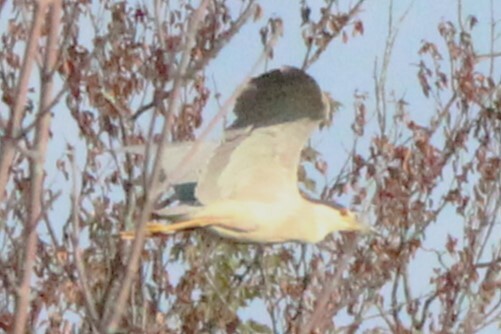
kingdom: Animalia
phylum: Chordata
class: Aves
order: Pelecaniformes
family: Ardeidae
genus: Nycticorax
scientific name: Nycticorax nycticorax
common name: Black-crowned night heron
